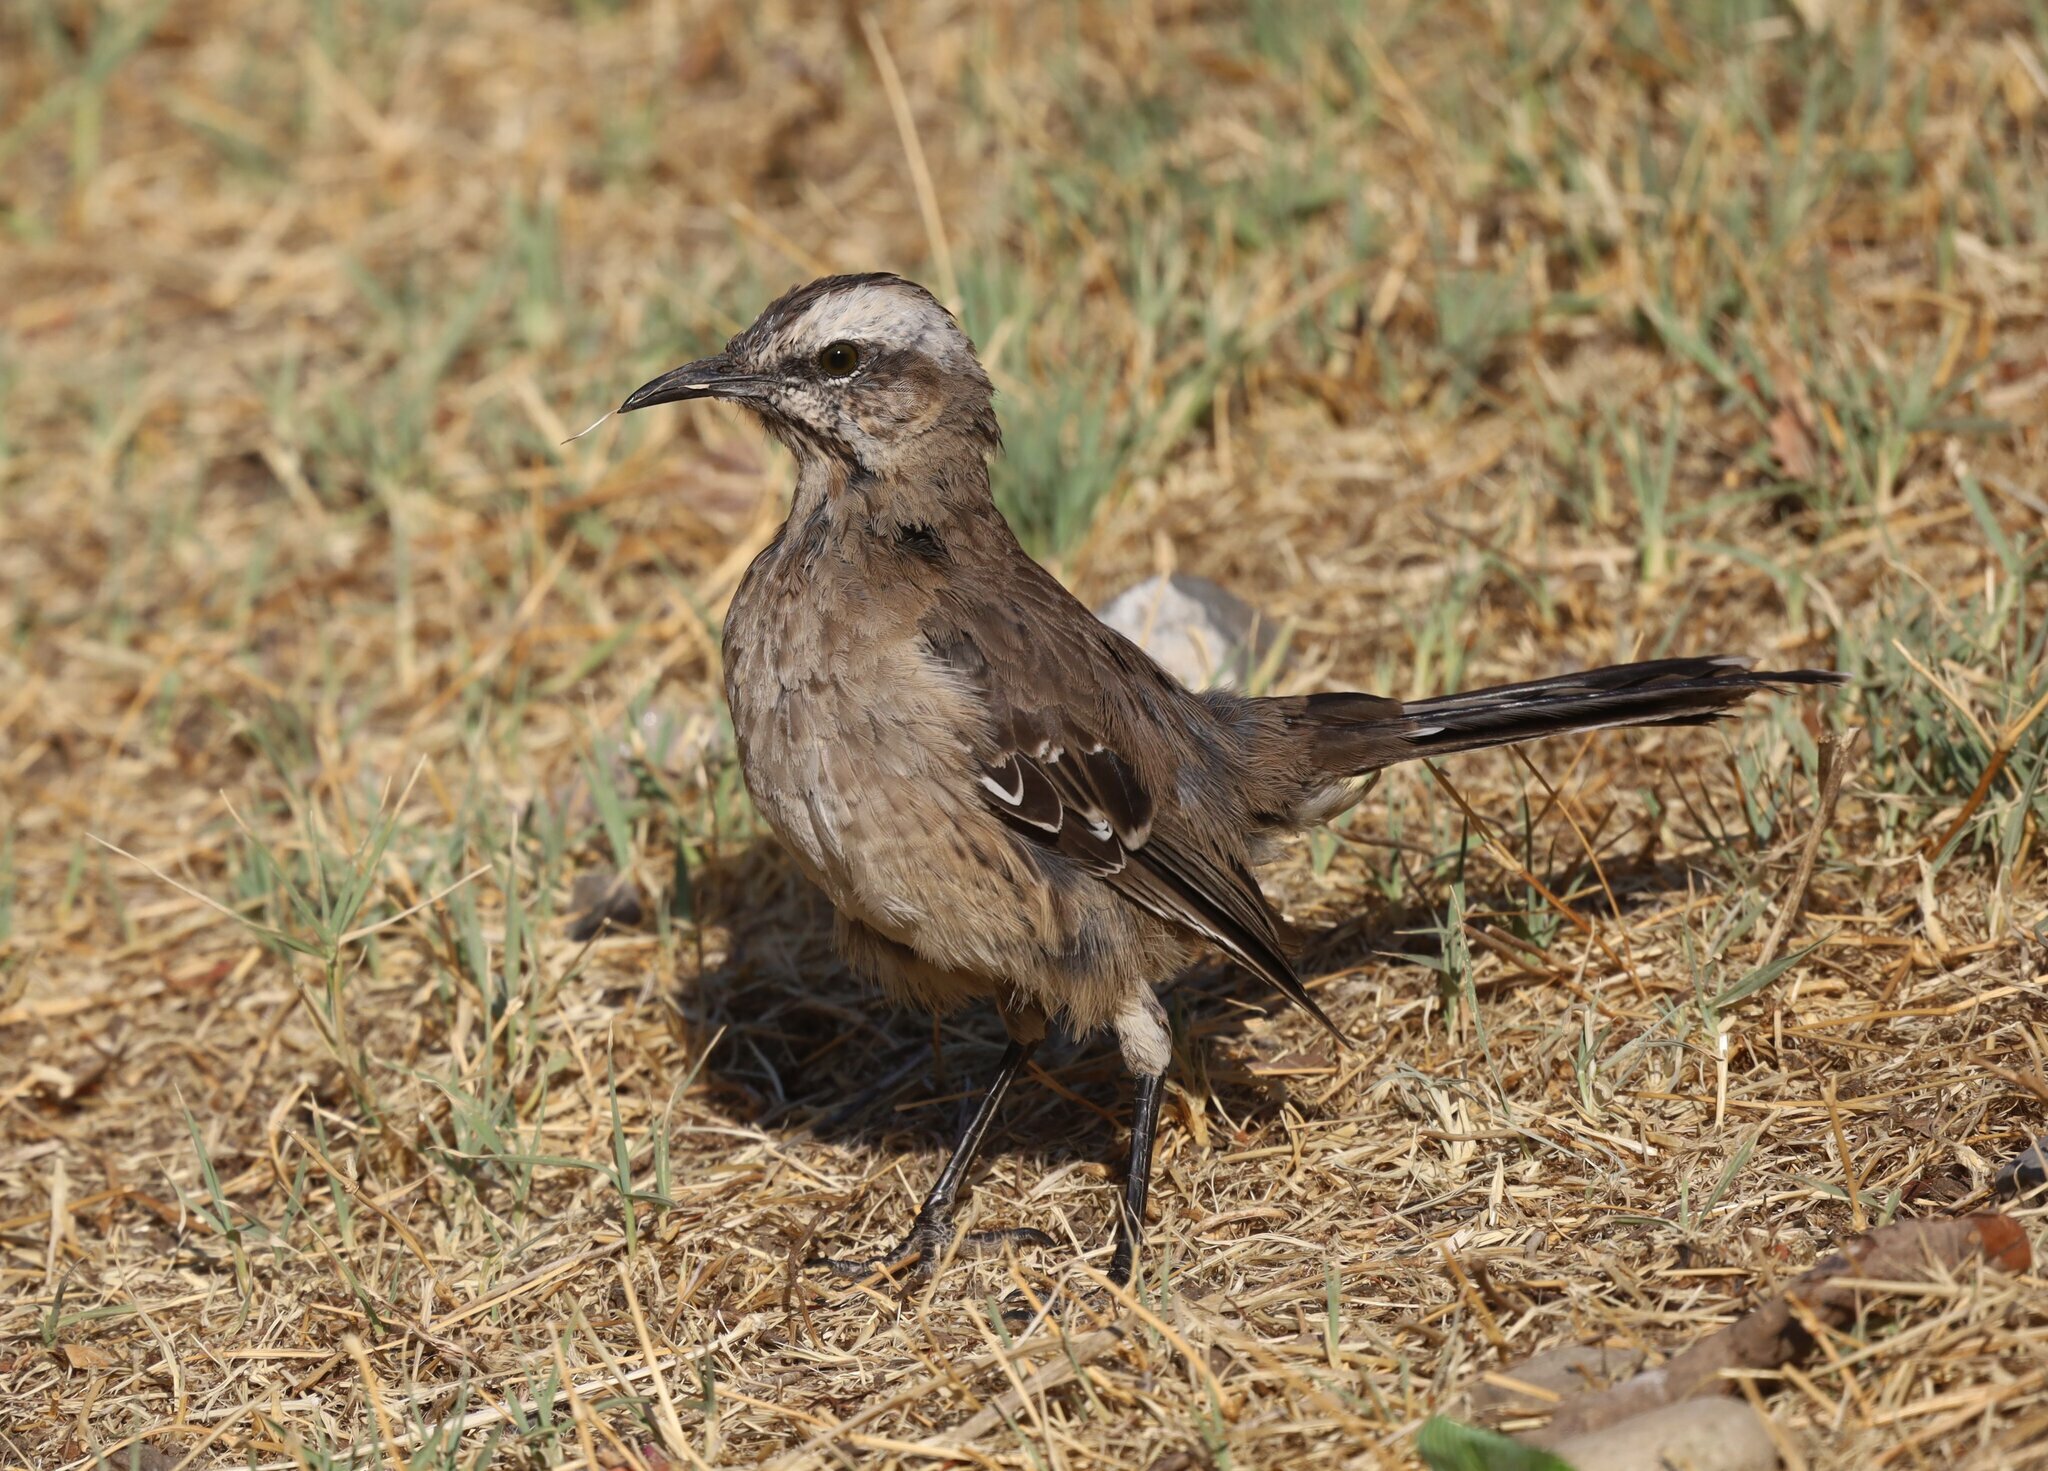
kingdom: Animalia
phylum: Chordata
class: Aves
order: Passeriformes
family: Mimidae
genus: Mimus
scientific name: Mimus thenca
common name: Chilean mockingbird
